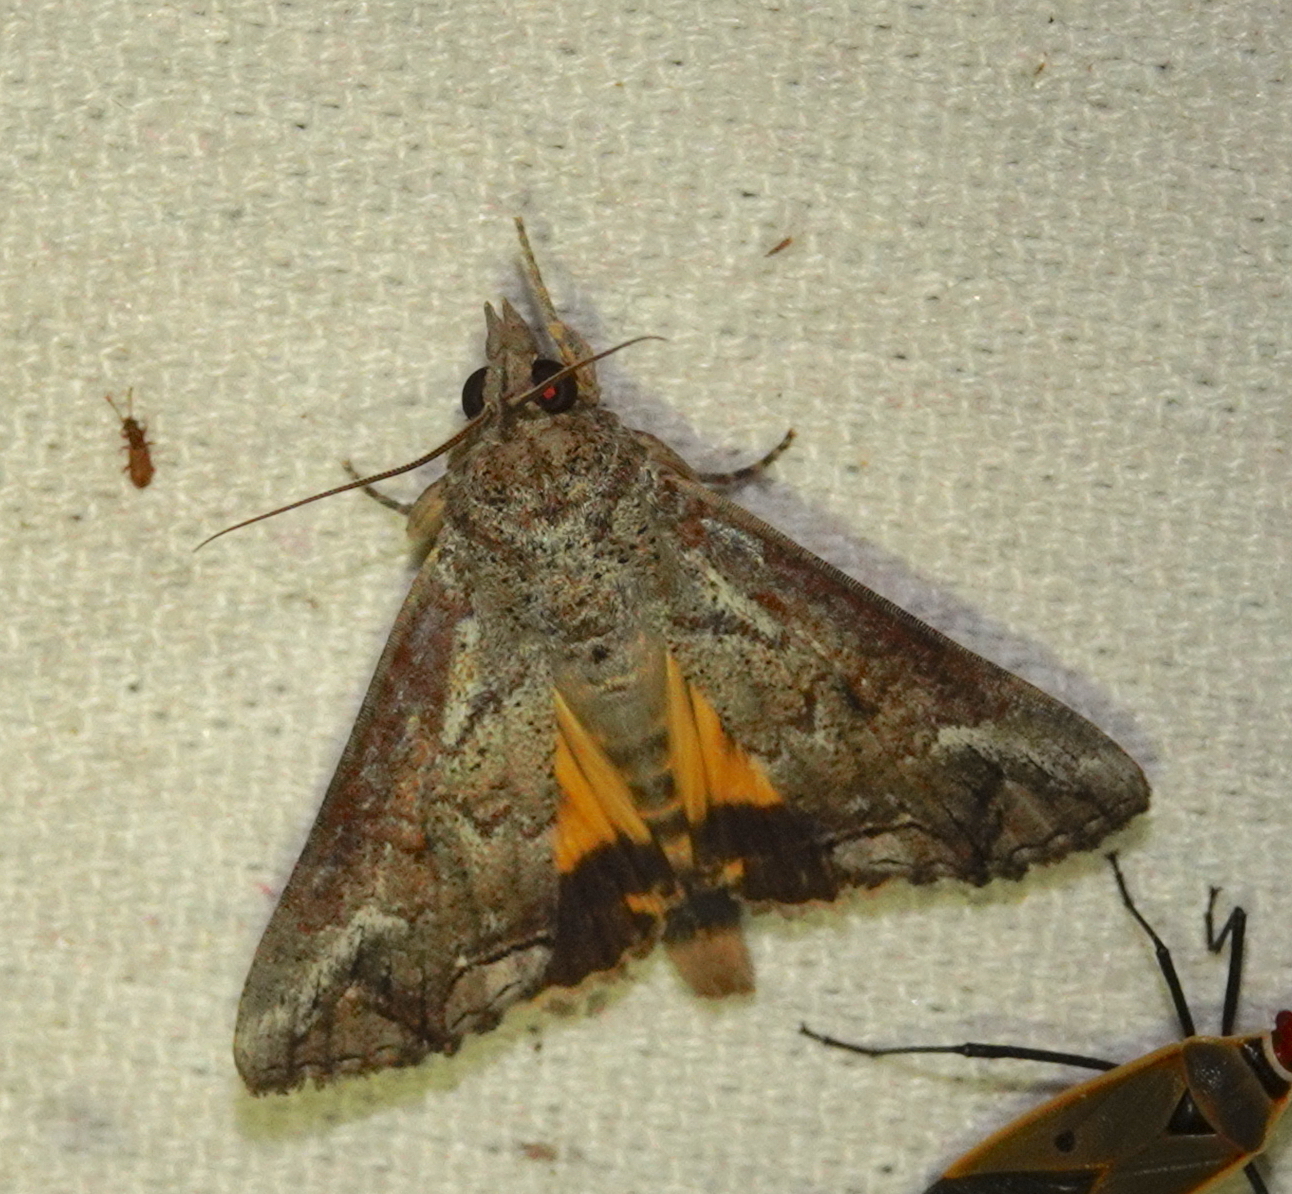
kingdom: Animalia
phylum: Arthropoda
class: Insecta
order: Lepidoptera
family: Erebidae
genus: Hypocala
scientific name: Hypocala deflorata
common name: Moth
